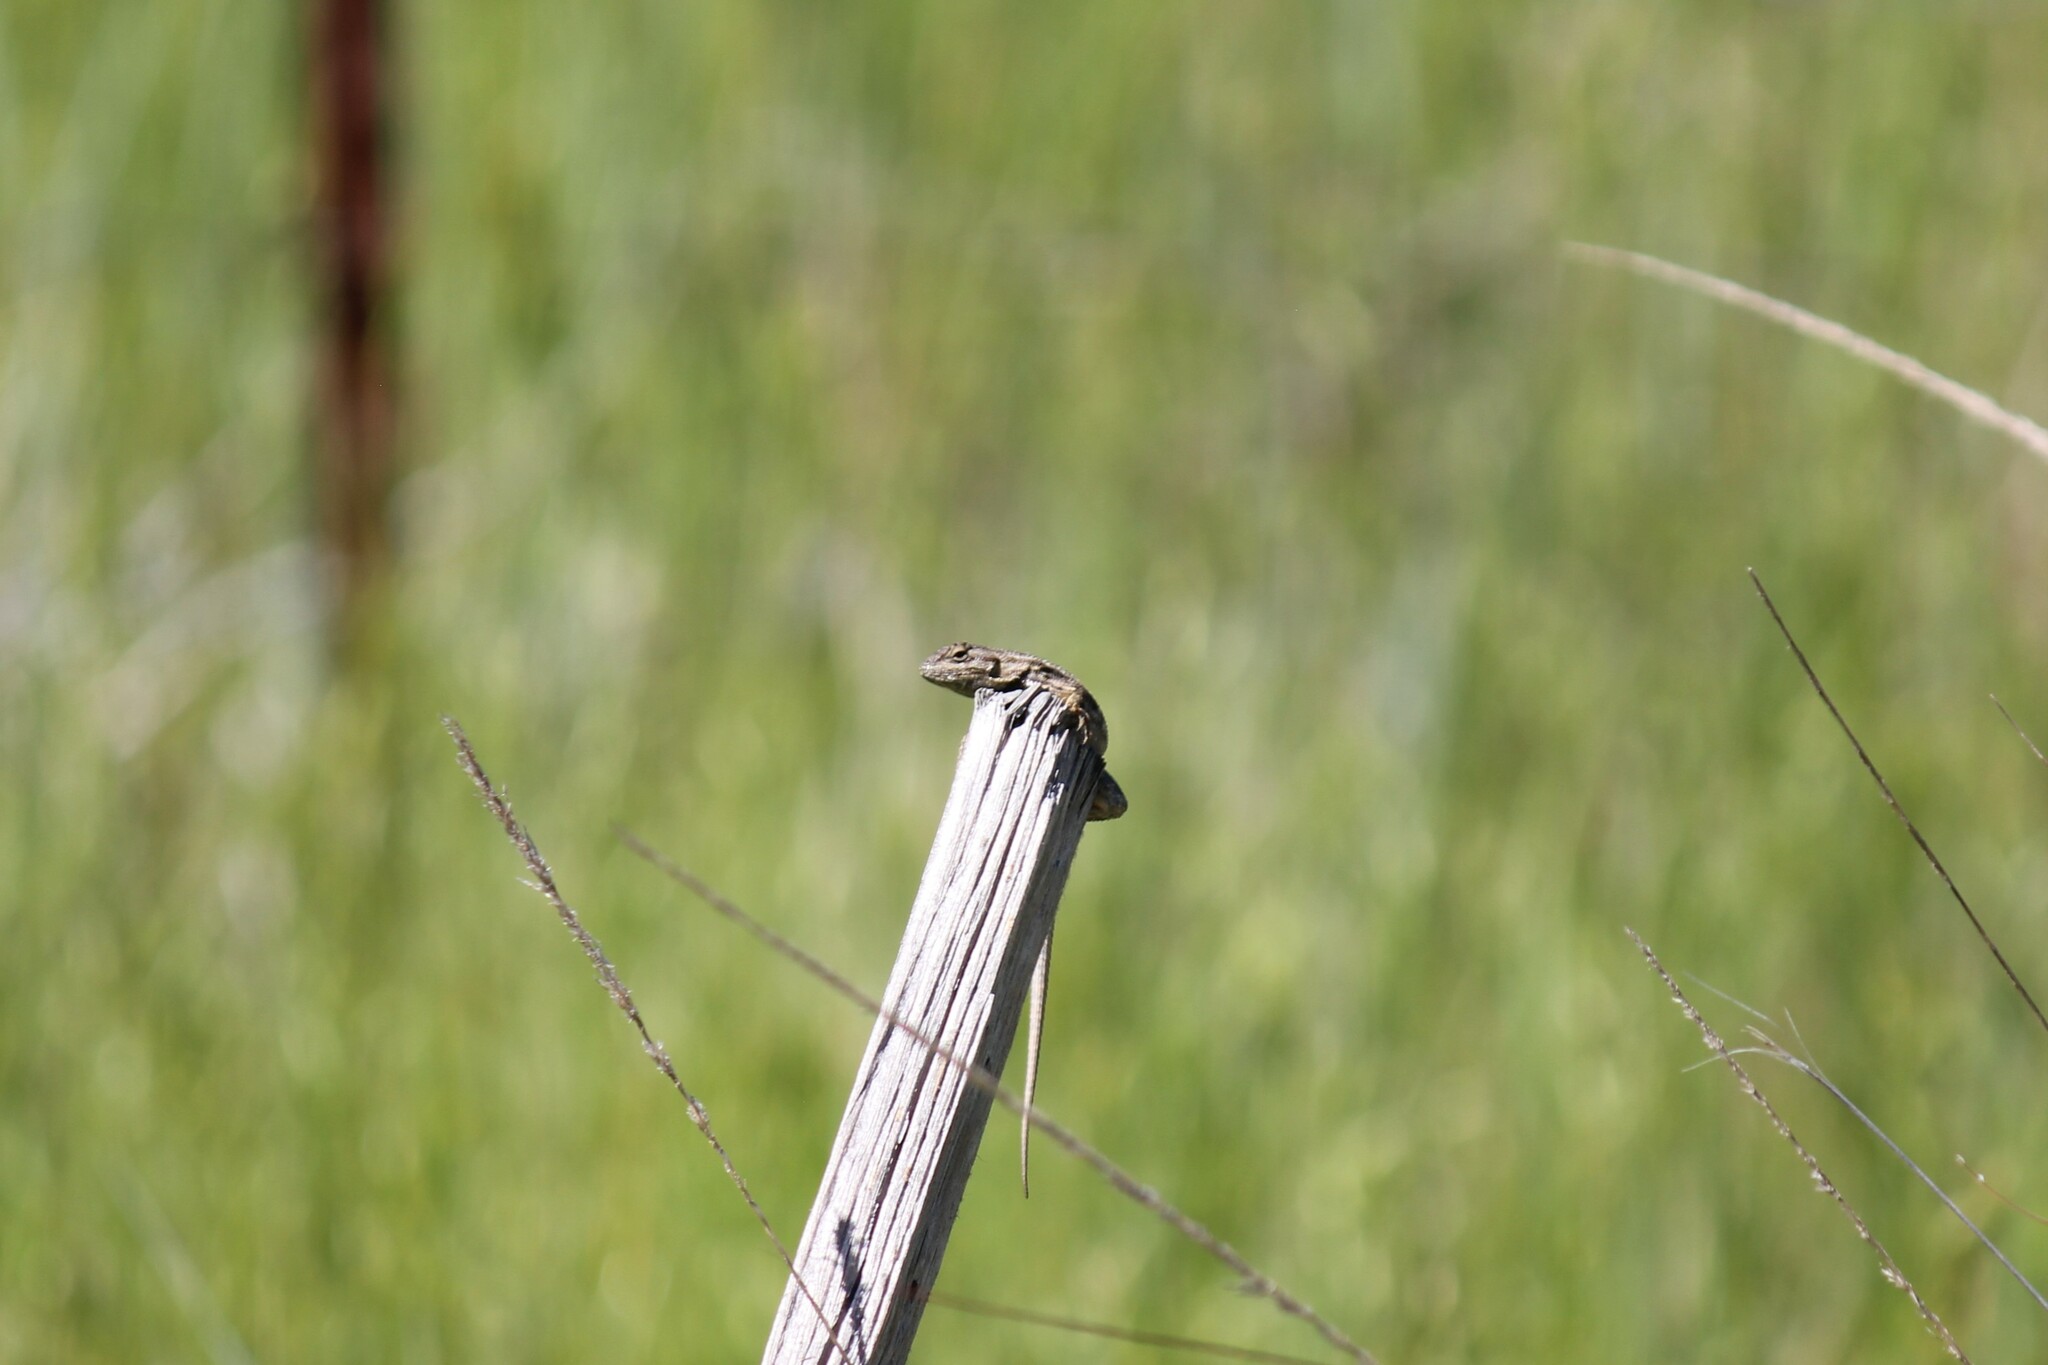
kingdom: Animalia
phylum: Chordata
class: Squamata
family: Phrynosomatidae
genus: Sceloporus
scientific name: Sceloporus occidentalis
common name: Western fence lizard
